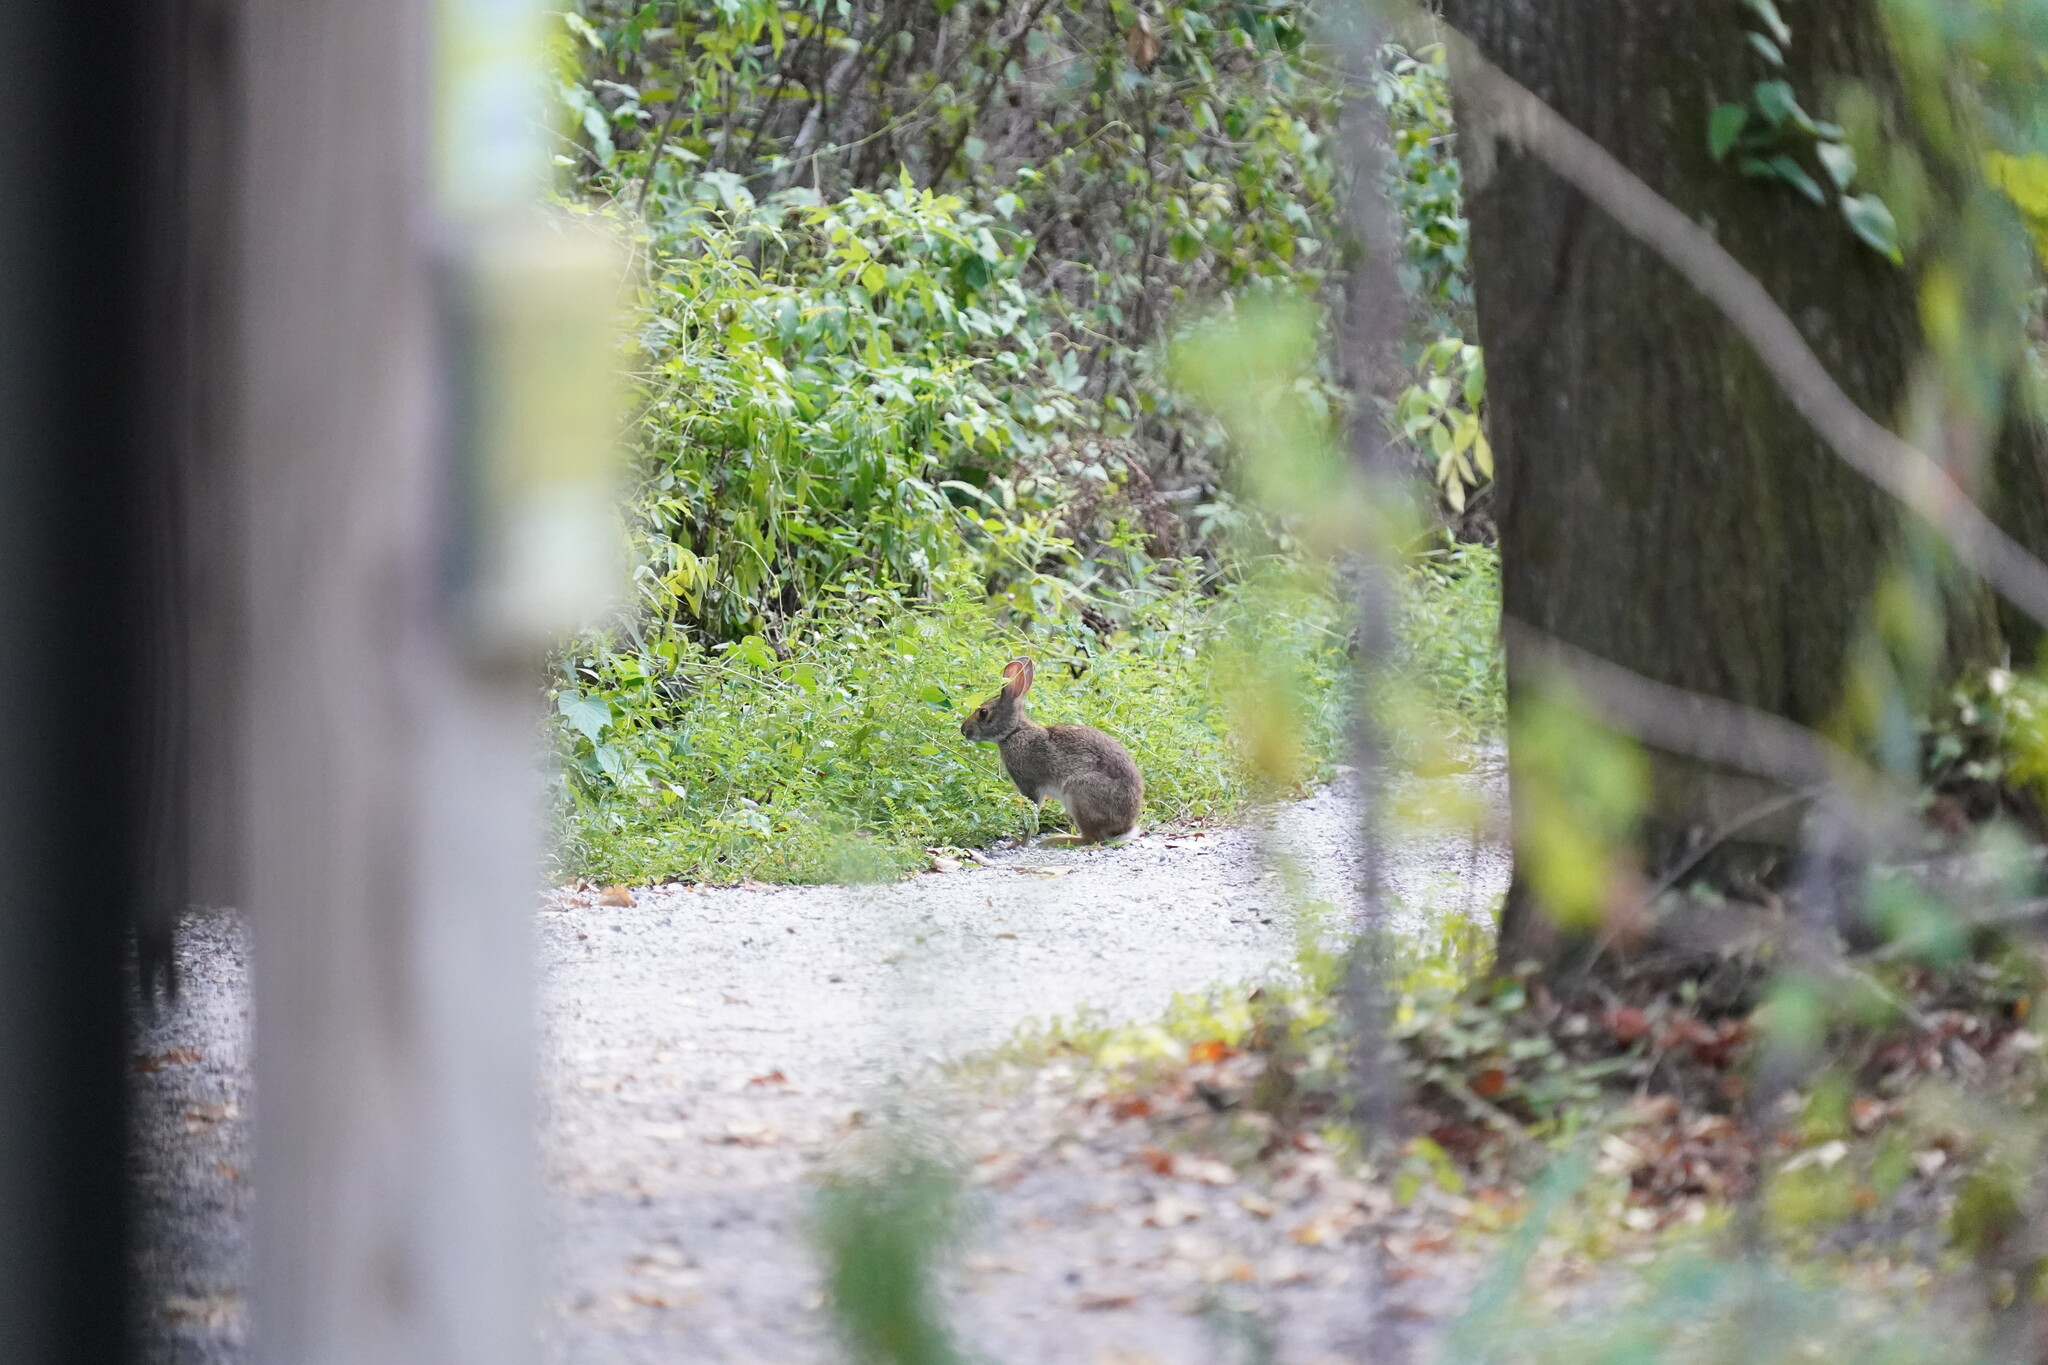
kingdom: Animalia
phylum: Chordata
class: Mammalia
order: Lagomorpha
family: Leporidae
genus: Sylvilagus
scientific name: Sylvilagus aquaticus
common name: Swamp rabbit
